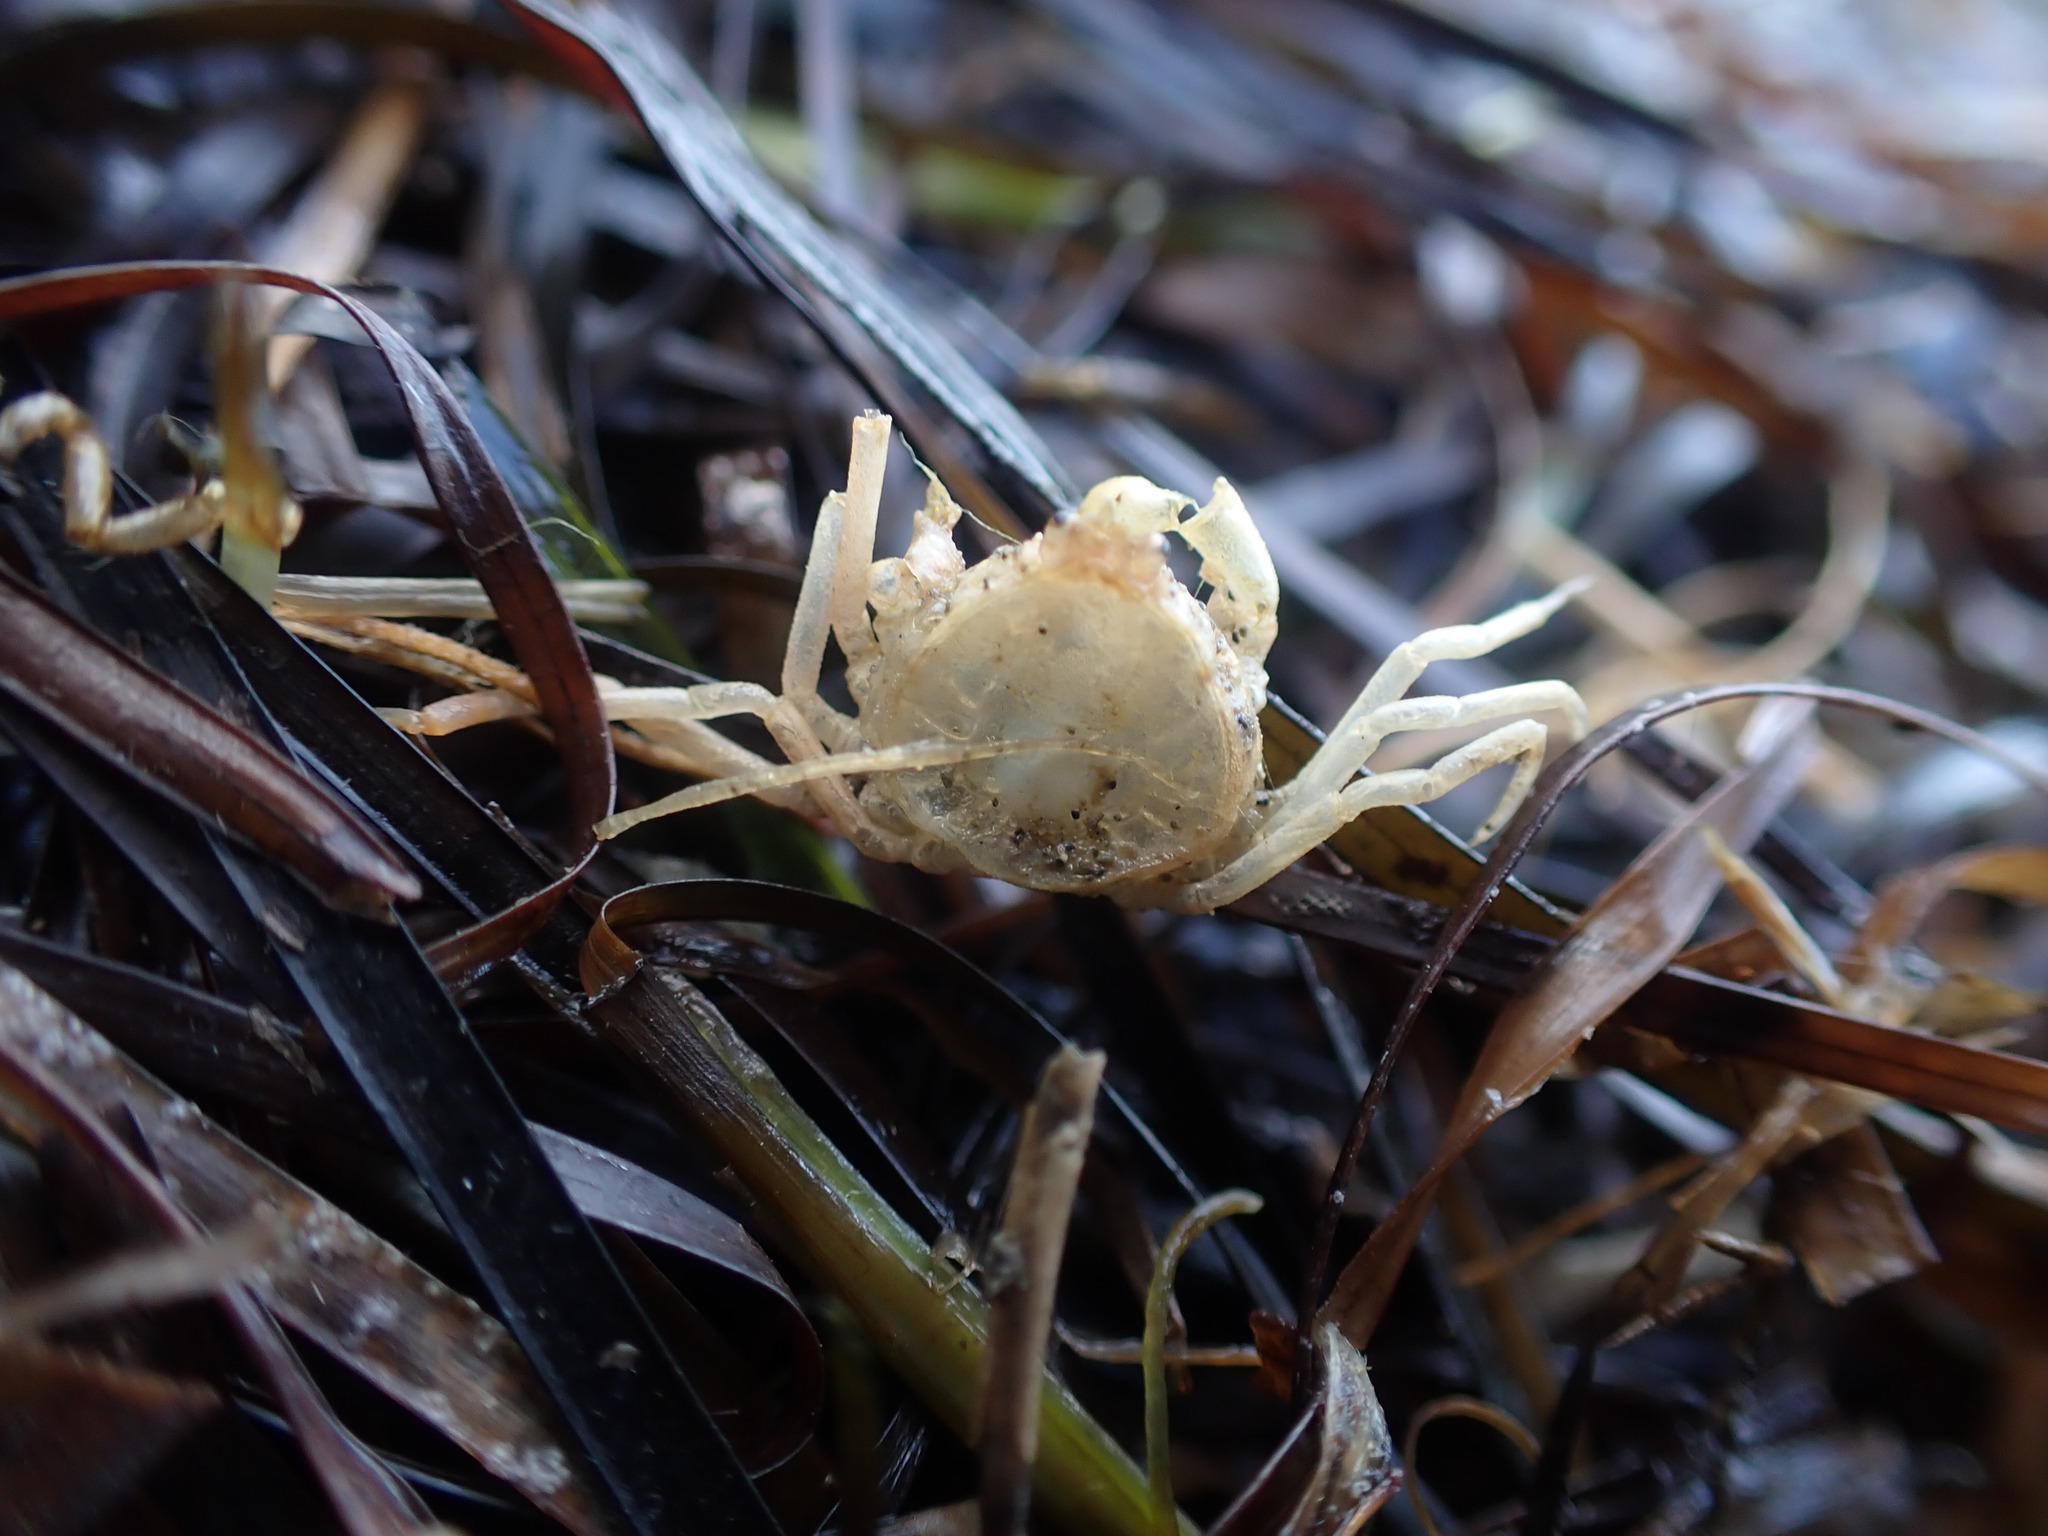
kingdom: Animalia
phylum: Arthropoda
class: Malacostraca
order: Decapoda
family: Hymenosomatidae
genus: Halicarcinus
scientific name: Halicarcinus whitei
